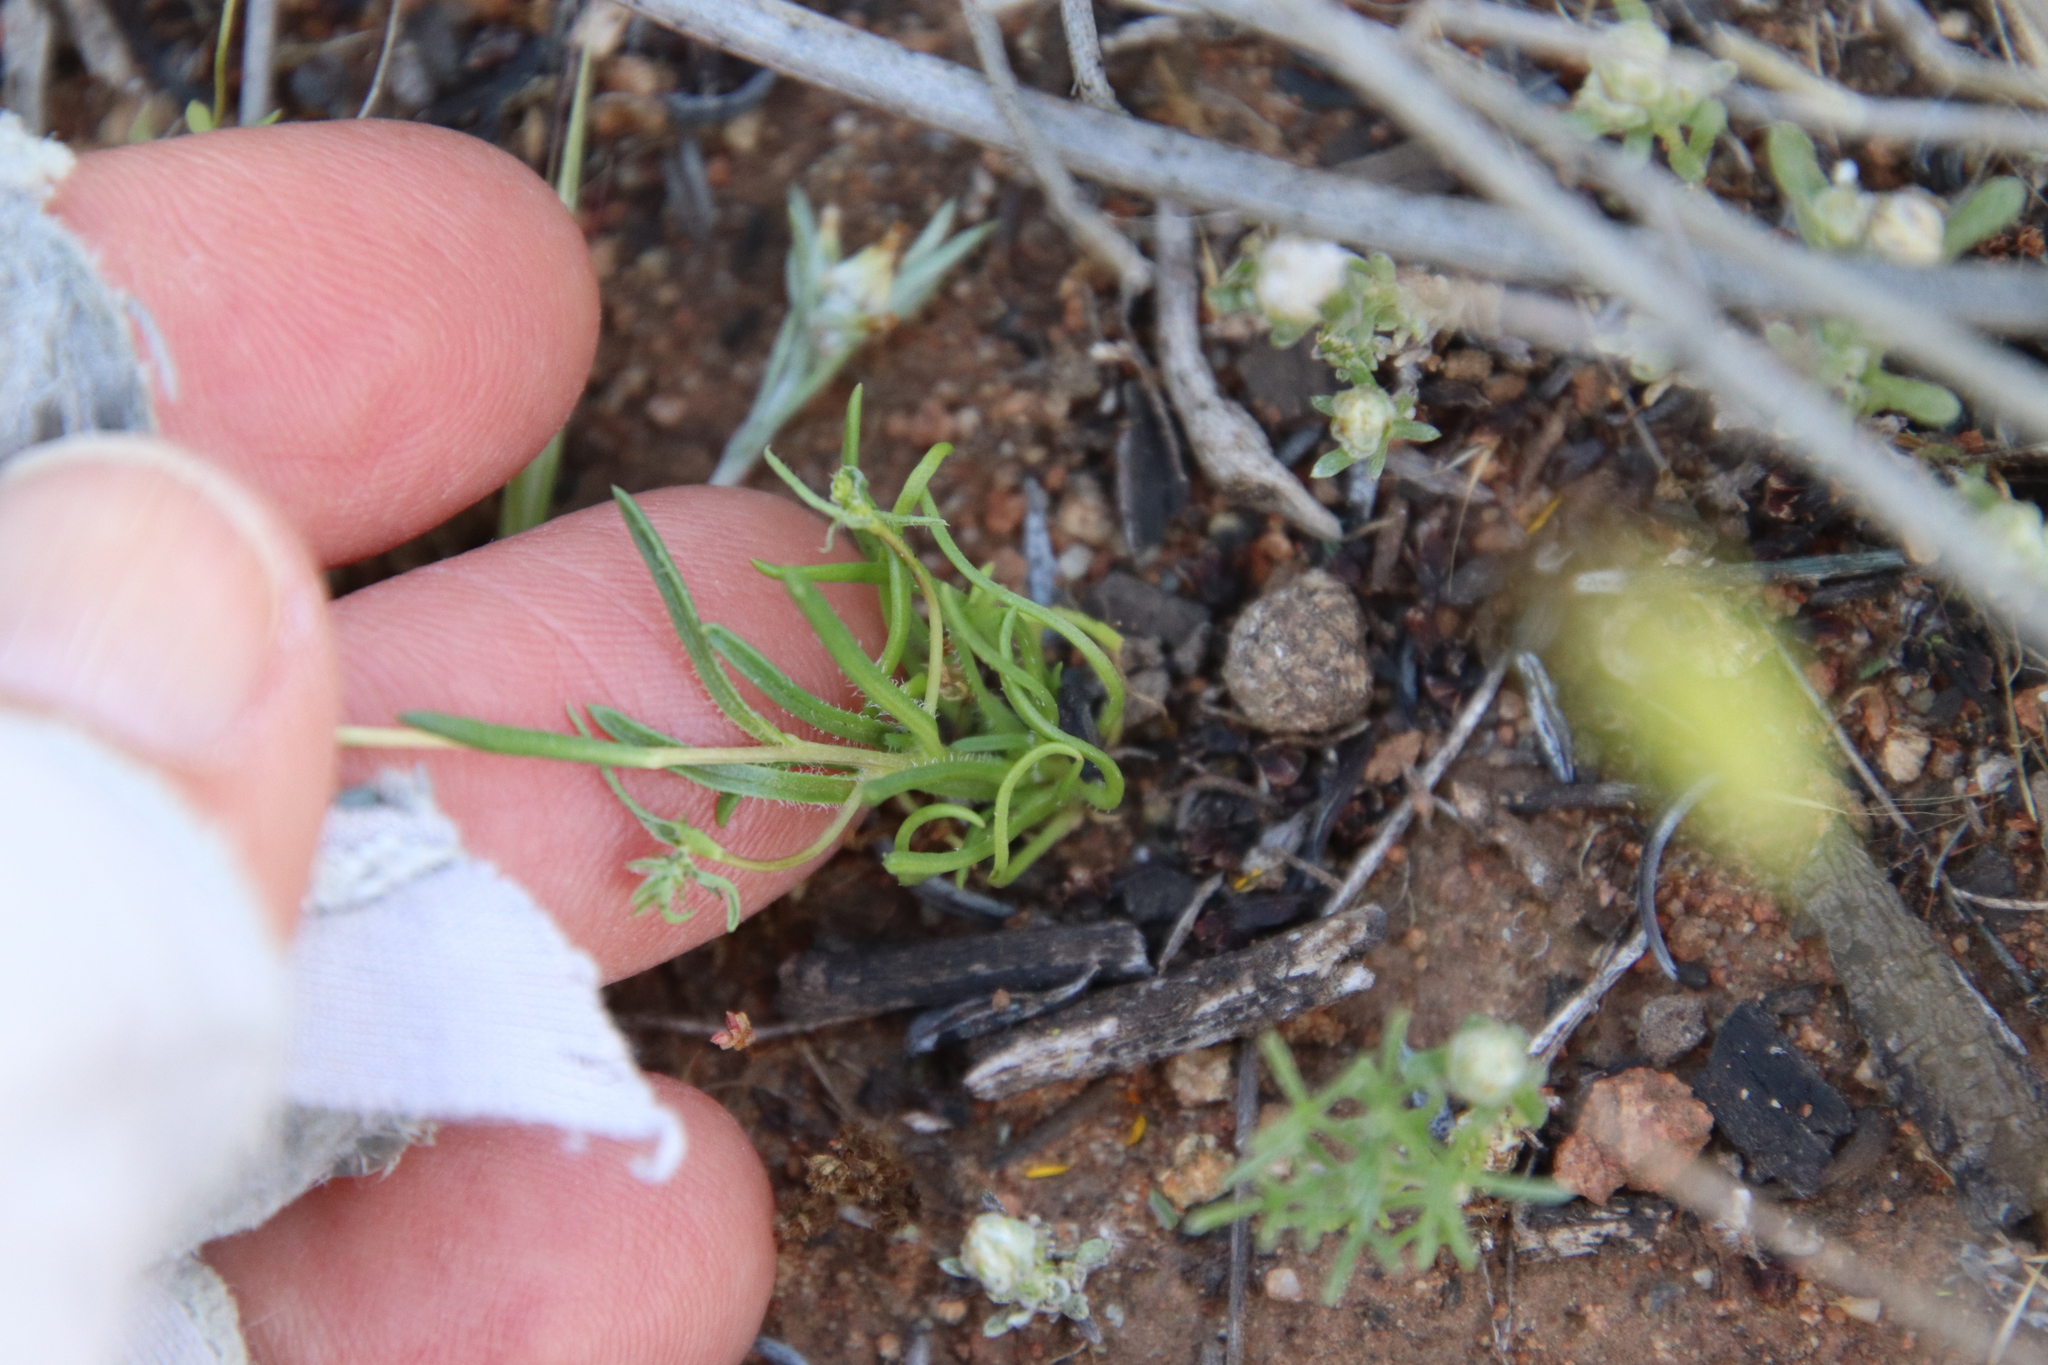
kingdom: Plantae
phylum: Tracheophyta
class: Magnoliopsida
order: Asterales
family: Asteraceae
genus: Pentachaeta
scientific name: Pentachaeta aurea
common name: Golden-ray pentachaeta
